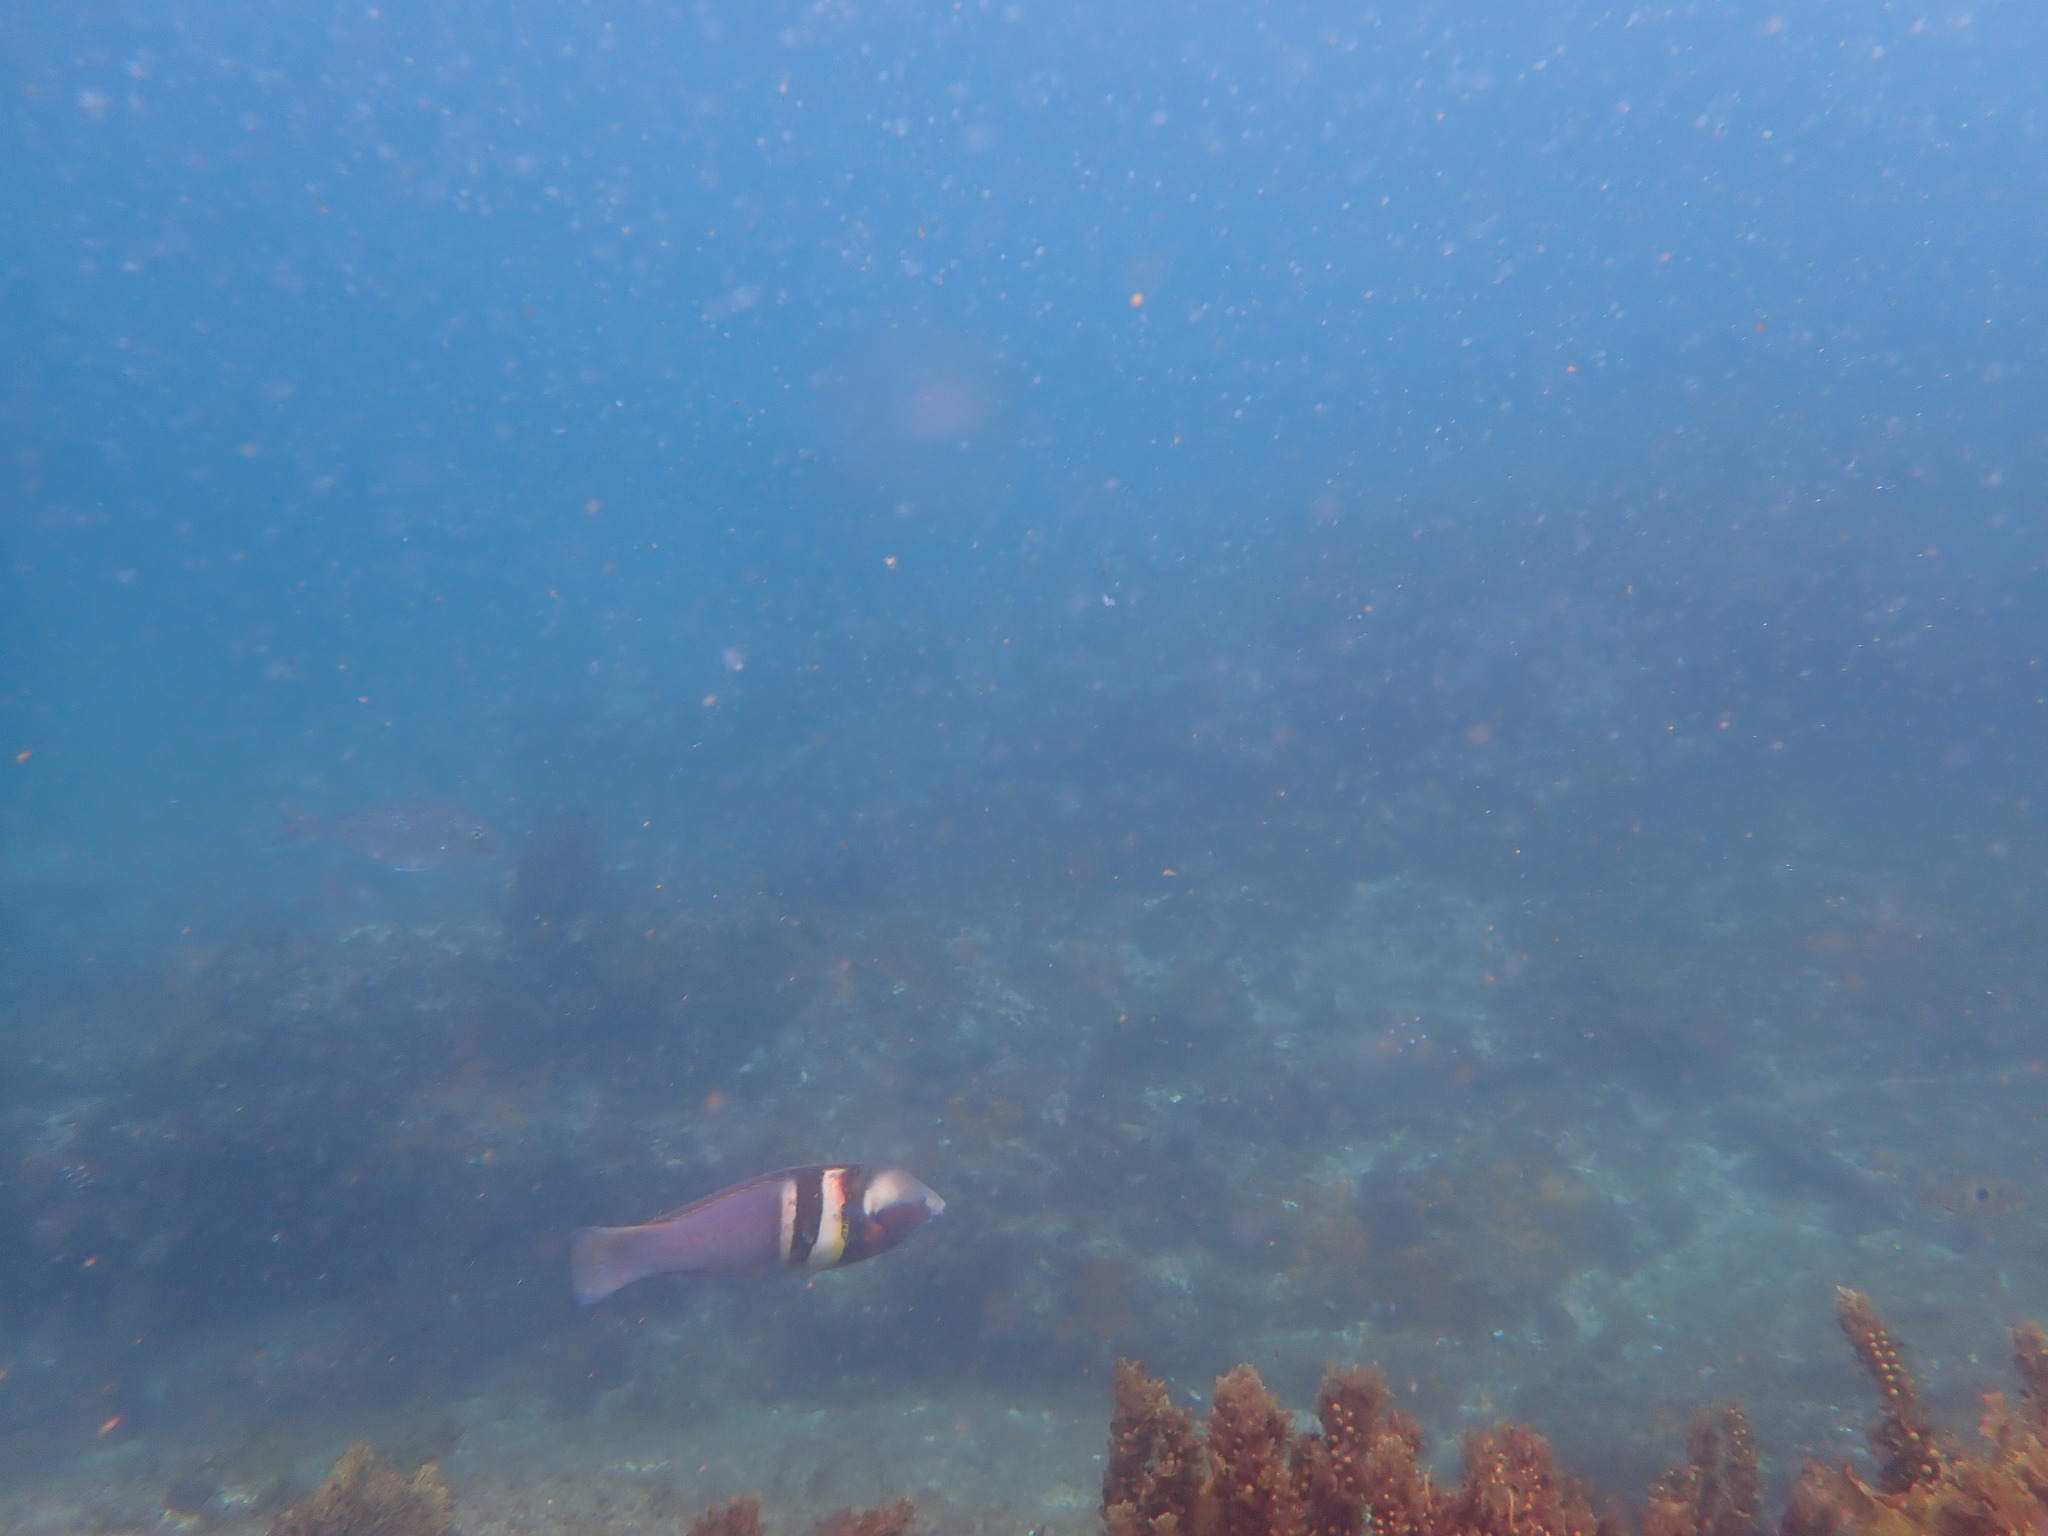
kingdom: Animalia
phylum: Chordata
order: Perciformes
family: Labridae
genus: Coris
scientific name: Coris sandeyeri
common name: Sandager's wrasse
